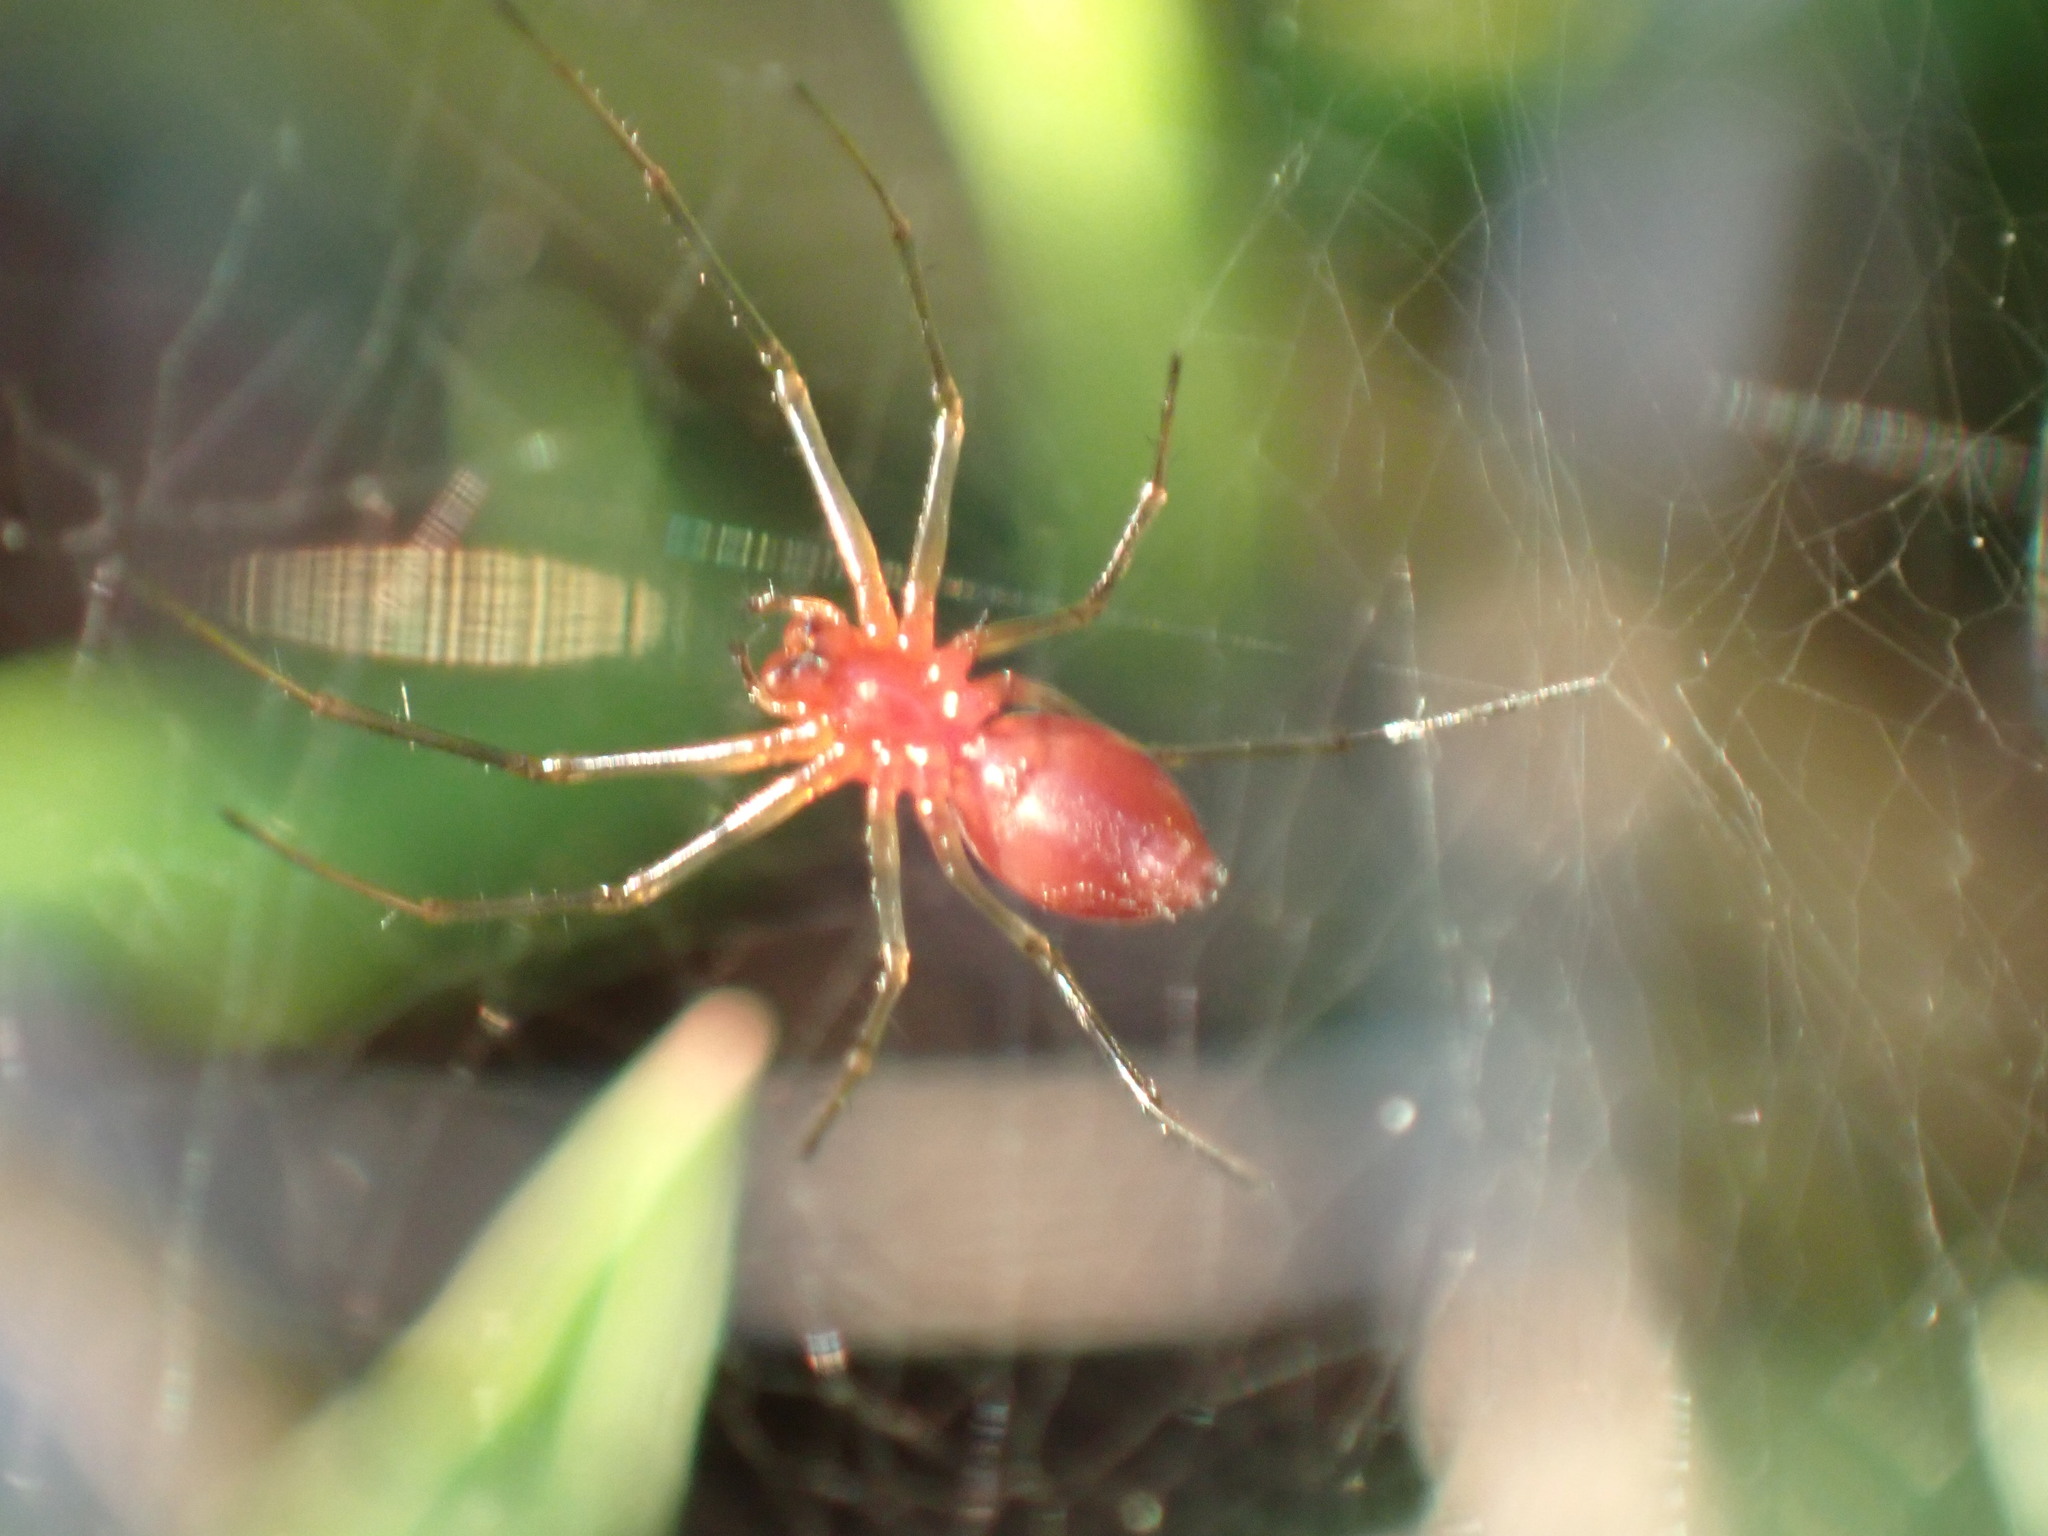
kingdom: Animalia
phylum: Arthropoda
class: Arachnida
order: Araneae
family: Linyphiidae
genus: Florinda
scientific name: Florinda coccinea
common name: Black-tailed red sheetweaver
